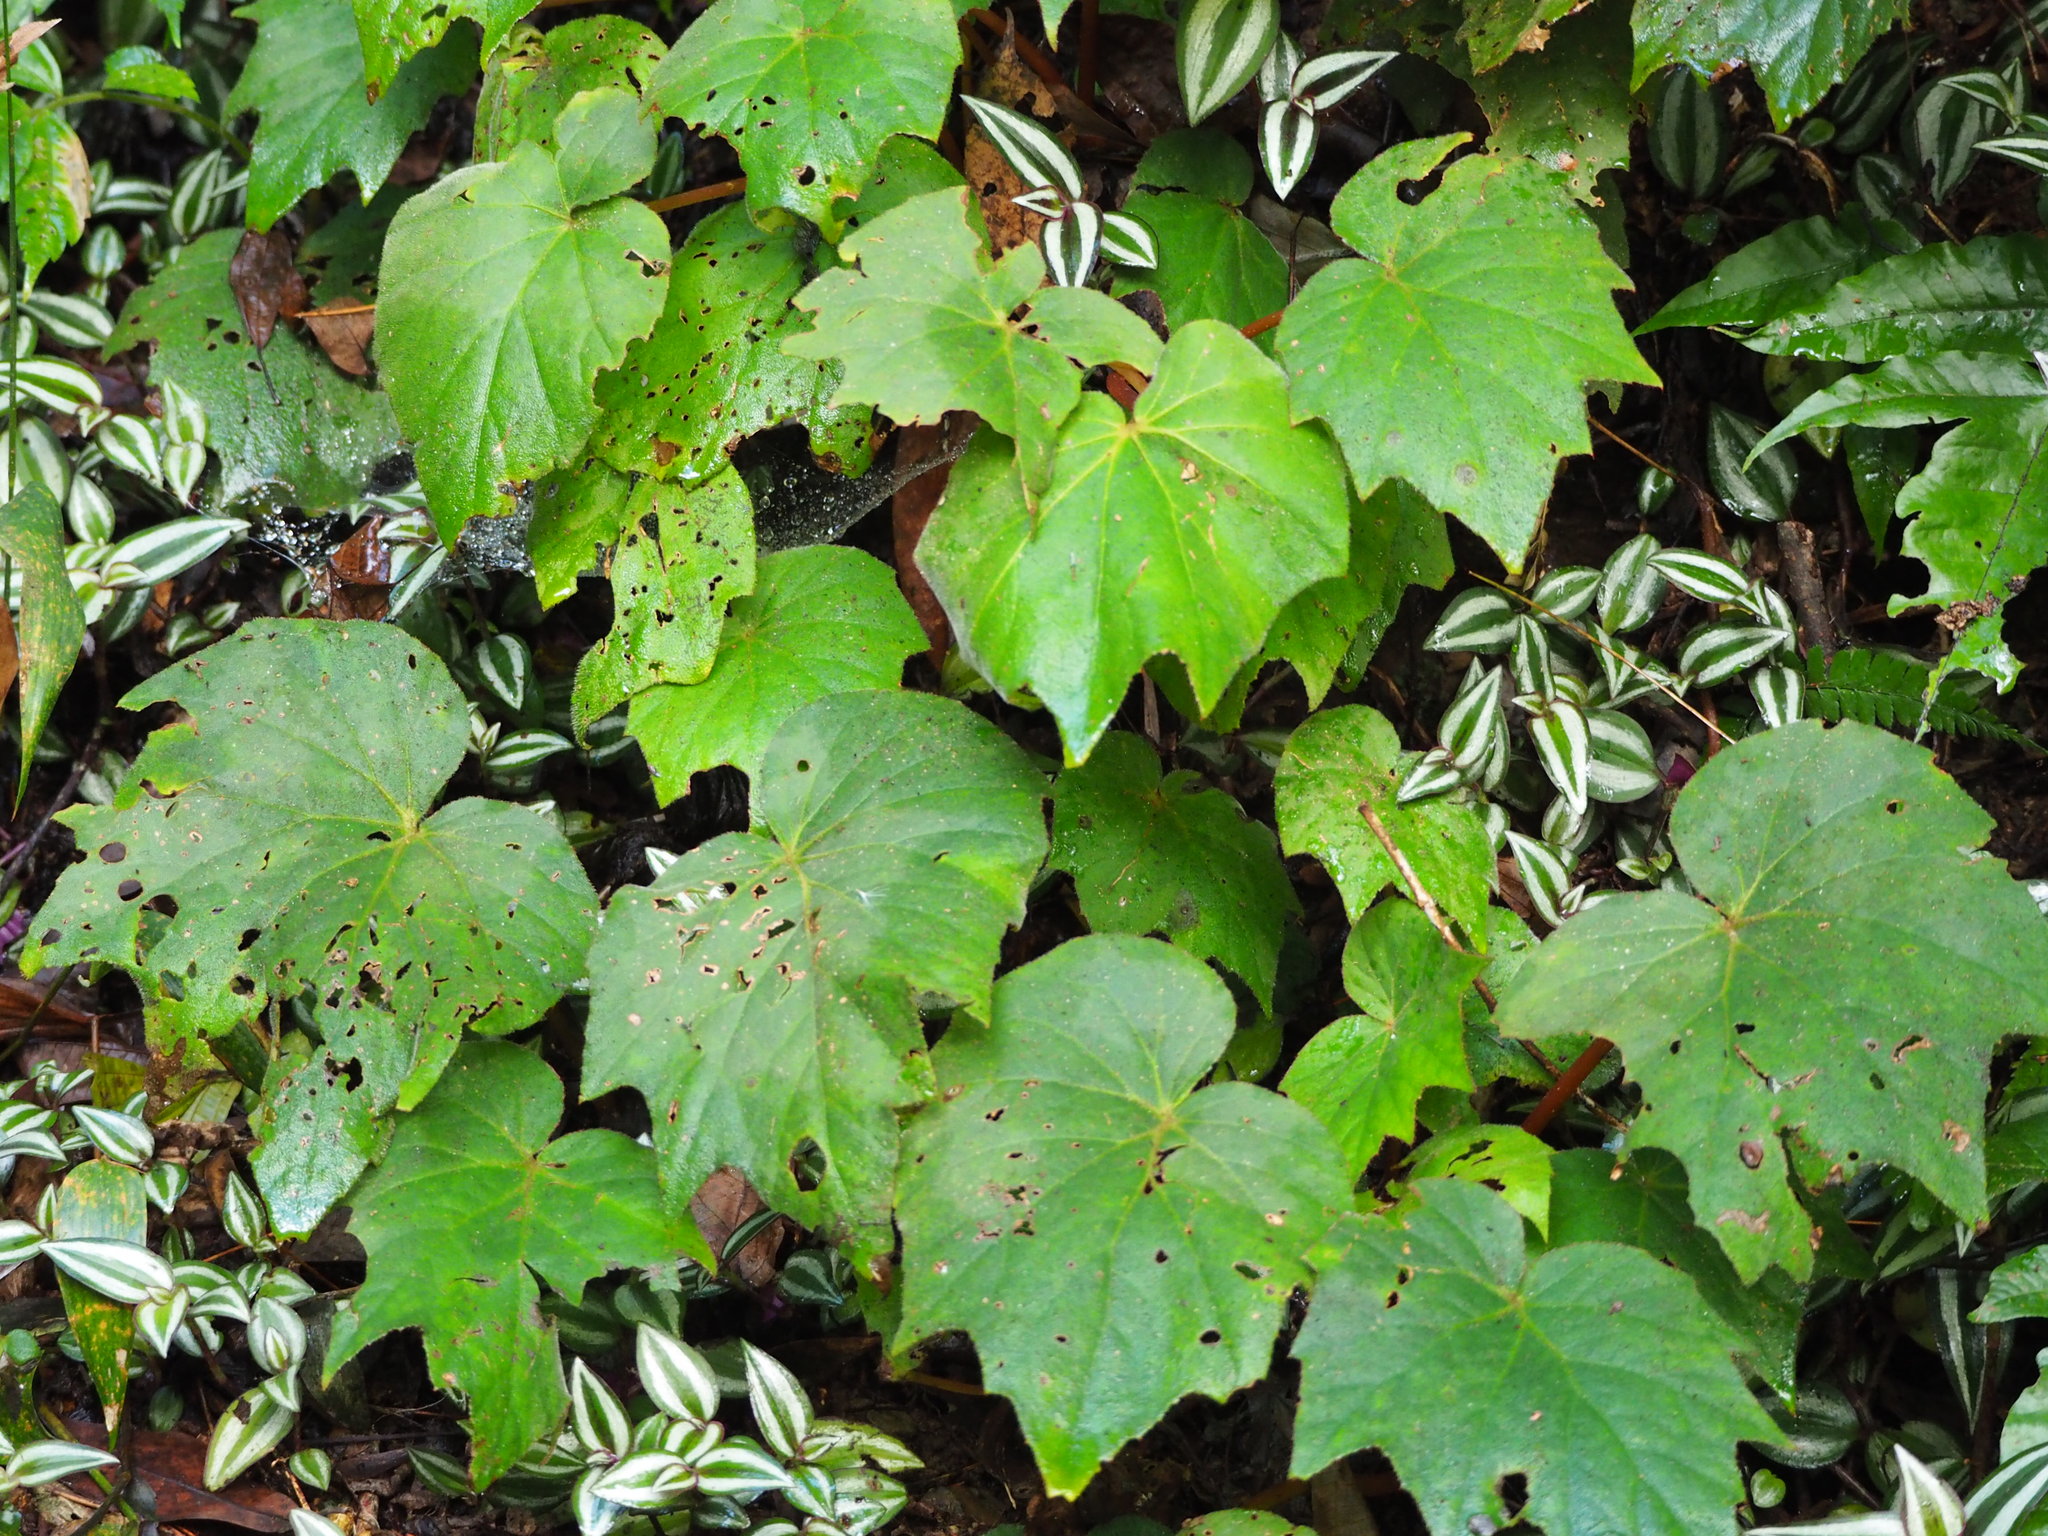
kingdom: Plantae
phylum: Tracheophyta
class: Magnoliopsida
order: Cucurbitales
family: Begoniaceae
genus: Begonia
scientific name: Begonia palmata
